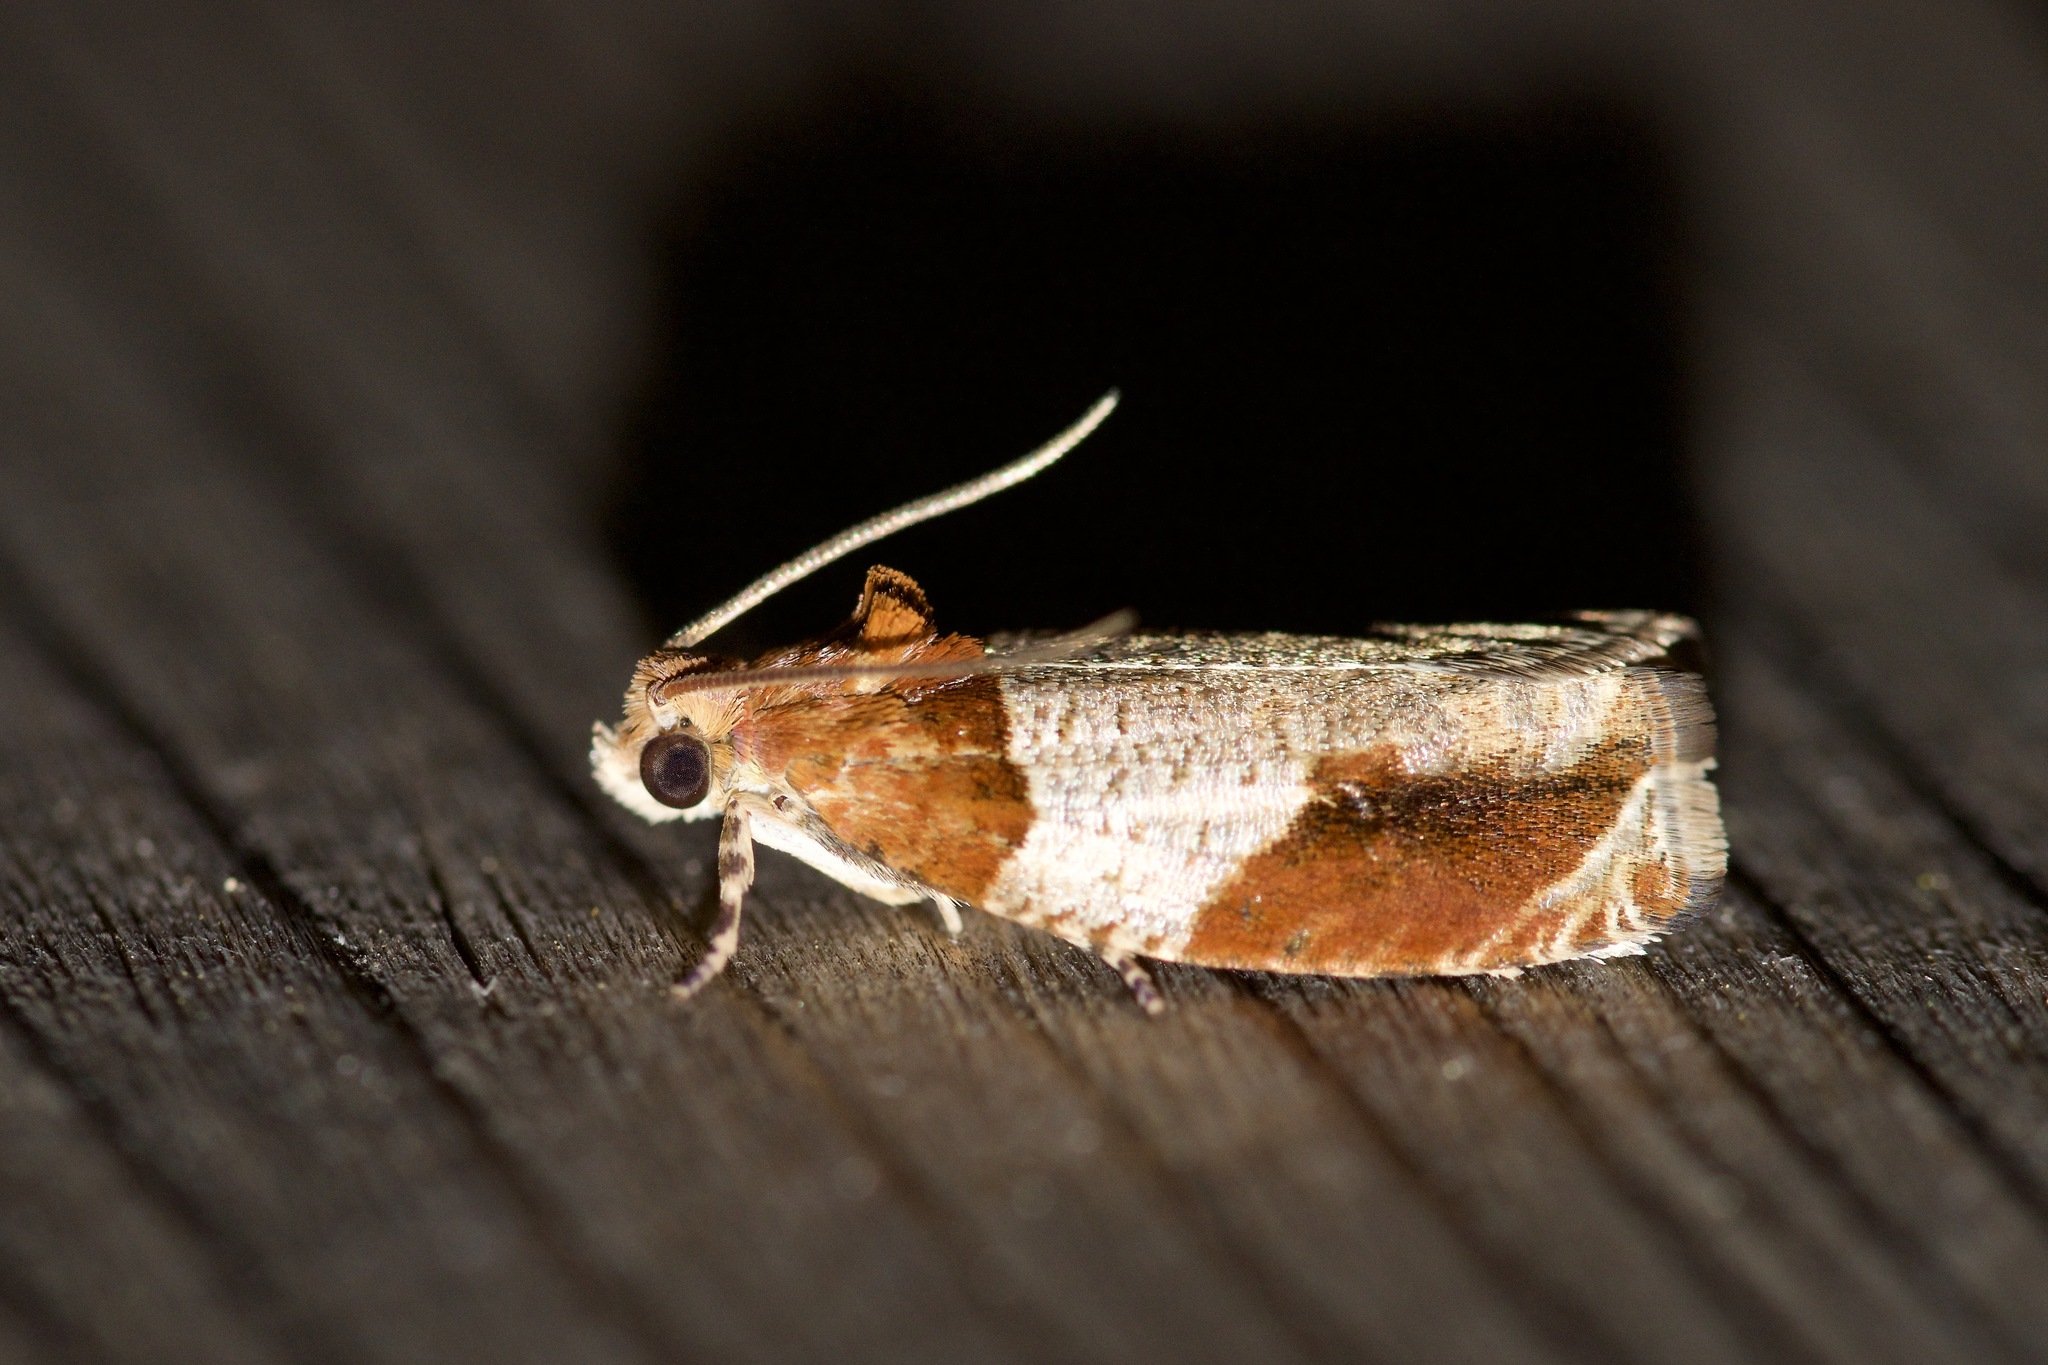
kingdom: Animalia
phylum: Arthropoda
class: Insecta
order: Lepidoptera
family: Tortricidae
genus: Olethreutes
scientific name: Olethreutes ferriferana
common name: Hydrangea leaftier moth
